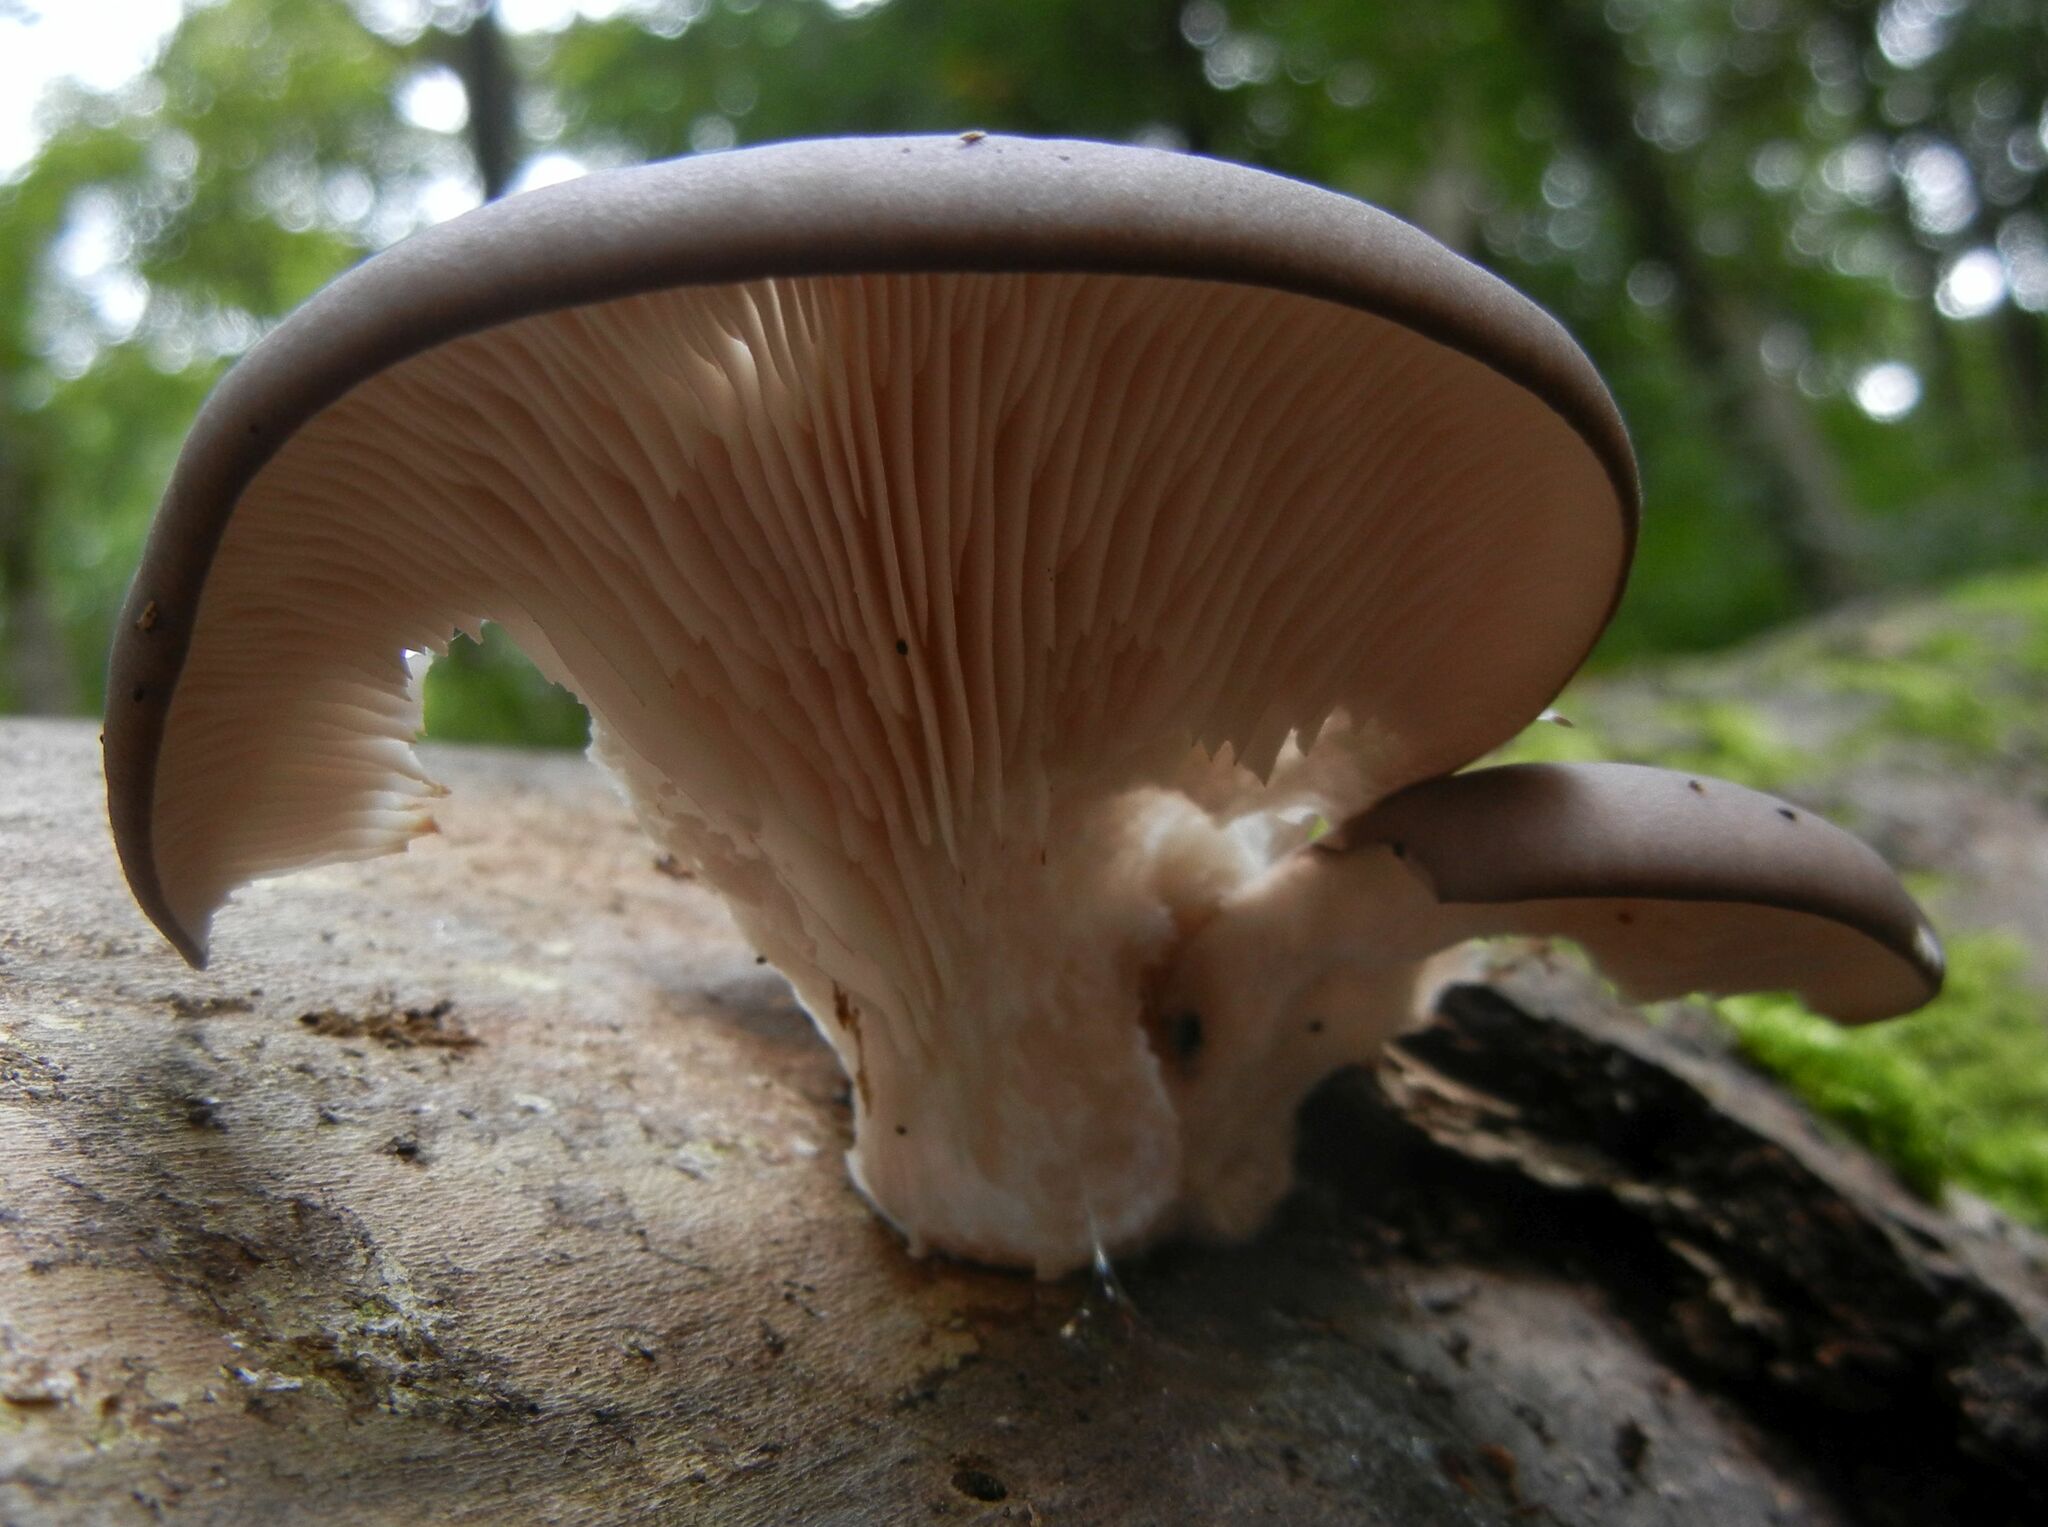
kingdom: Fungi
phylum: Basidiomycota
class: Agaricomycetes
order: Agaricales
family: Pleurotaceae
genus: Pleurotus
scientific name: Pleurotus ostreatus
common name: Oyster mushroom
